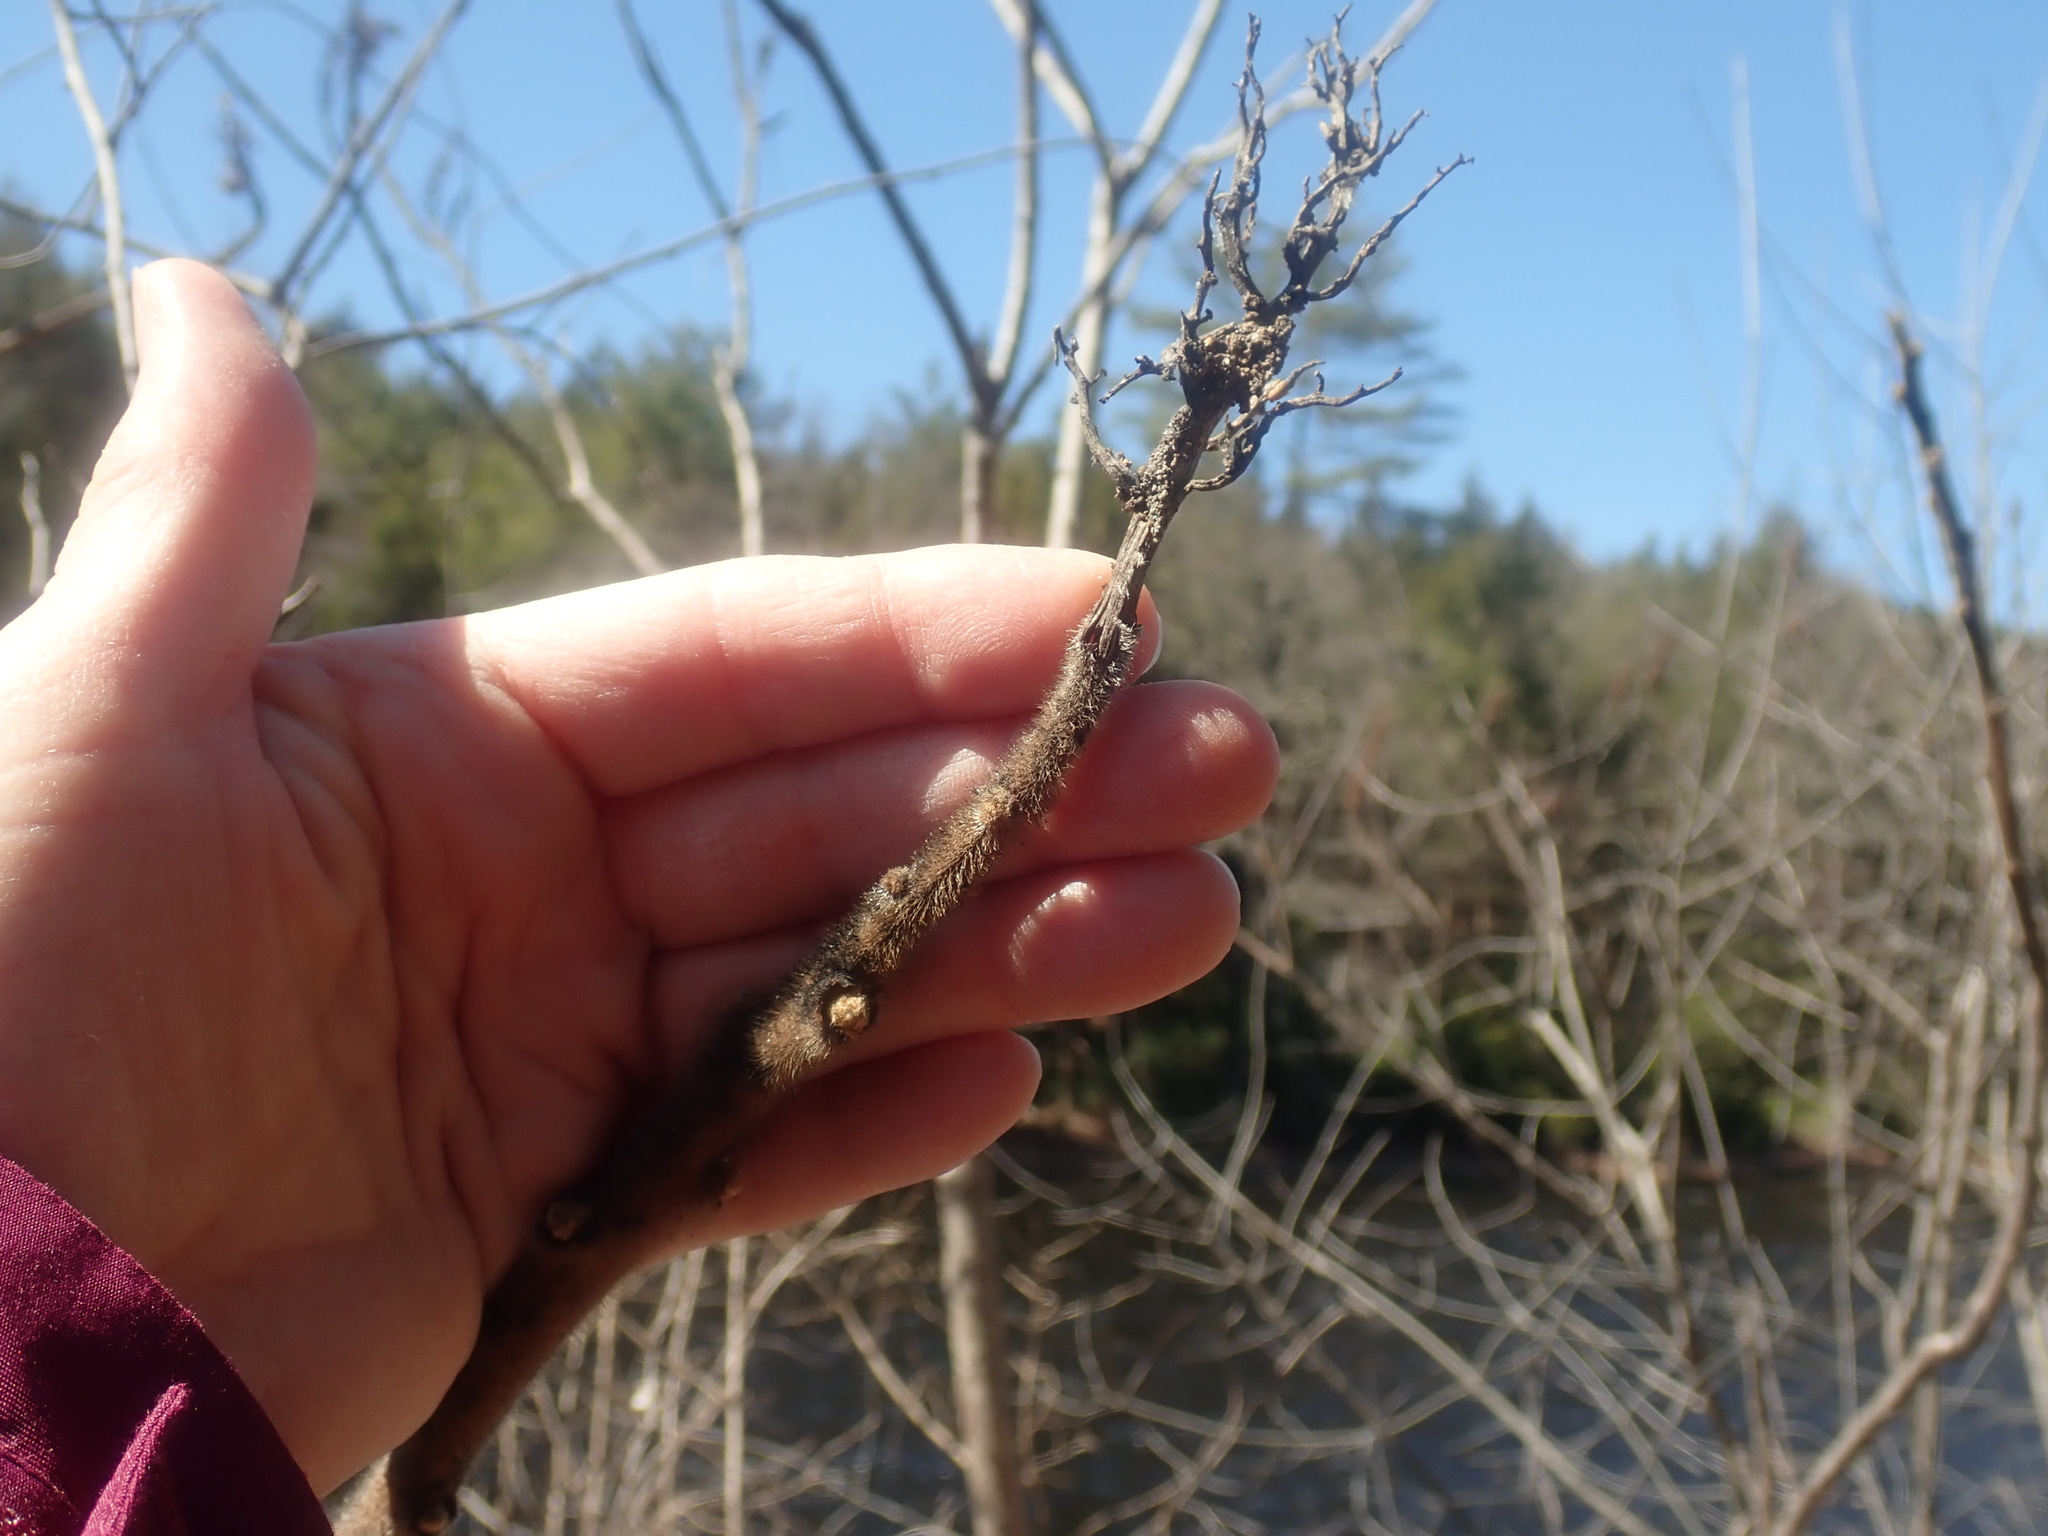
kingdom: Plantae
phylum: Tracheophyta
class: Magnoliopsida
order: Sapindales
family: Anacardiaceae
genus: Rhus
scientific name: Rhus typhina
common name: Staghorn sumac
